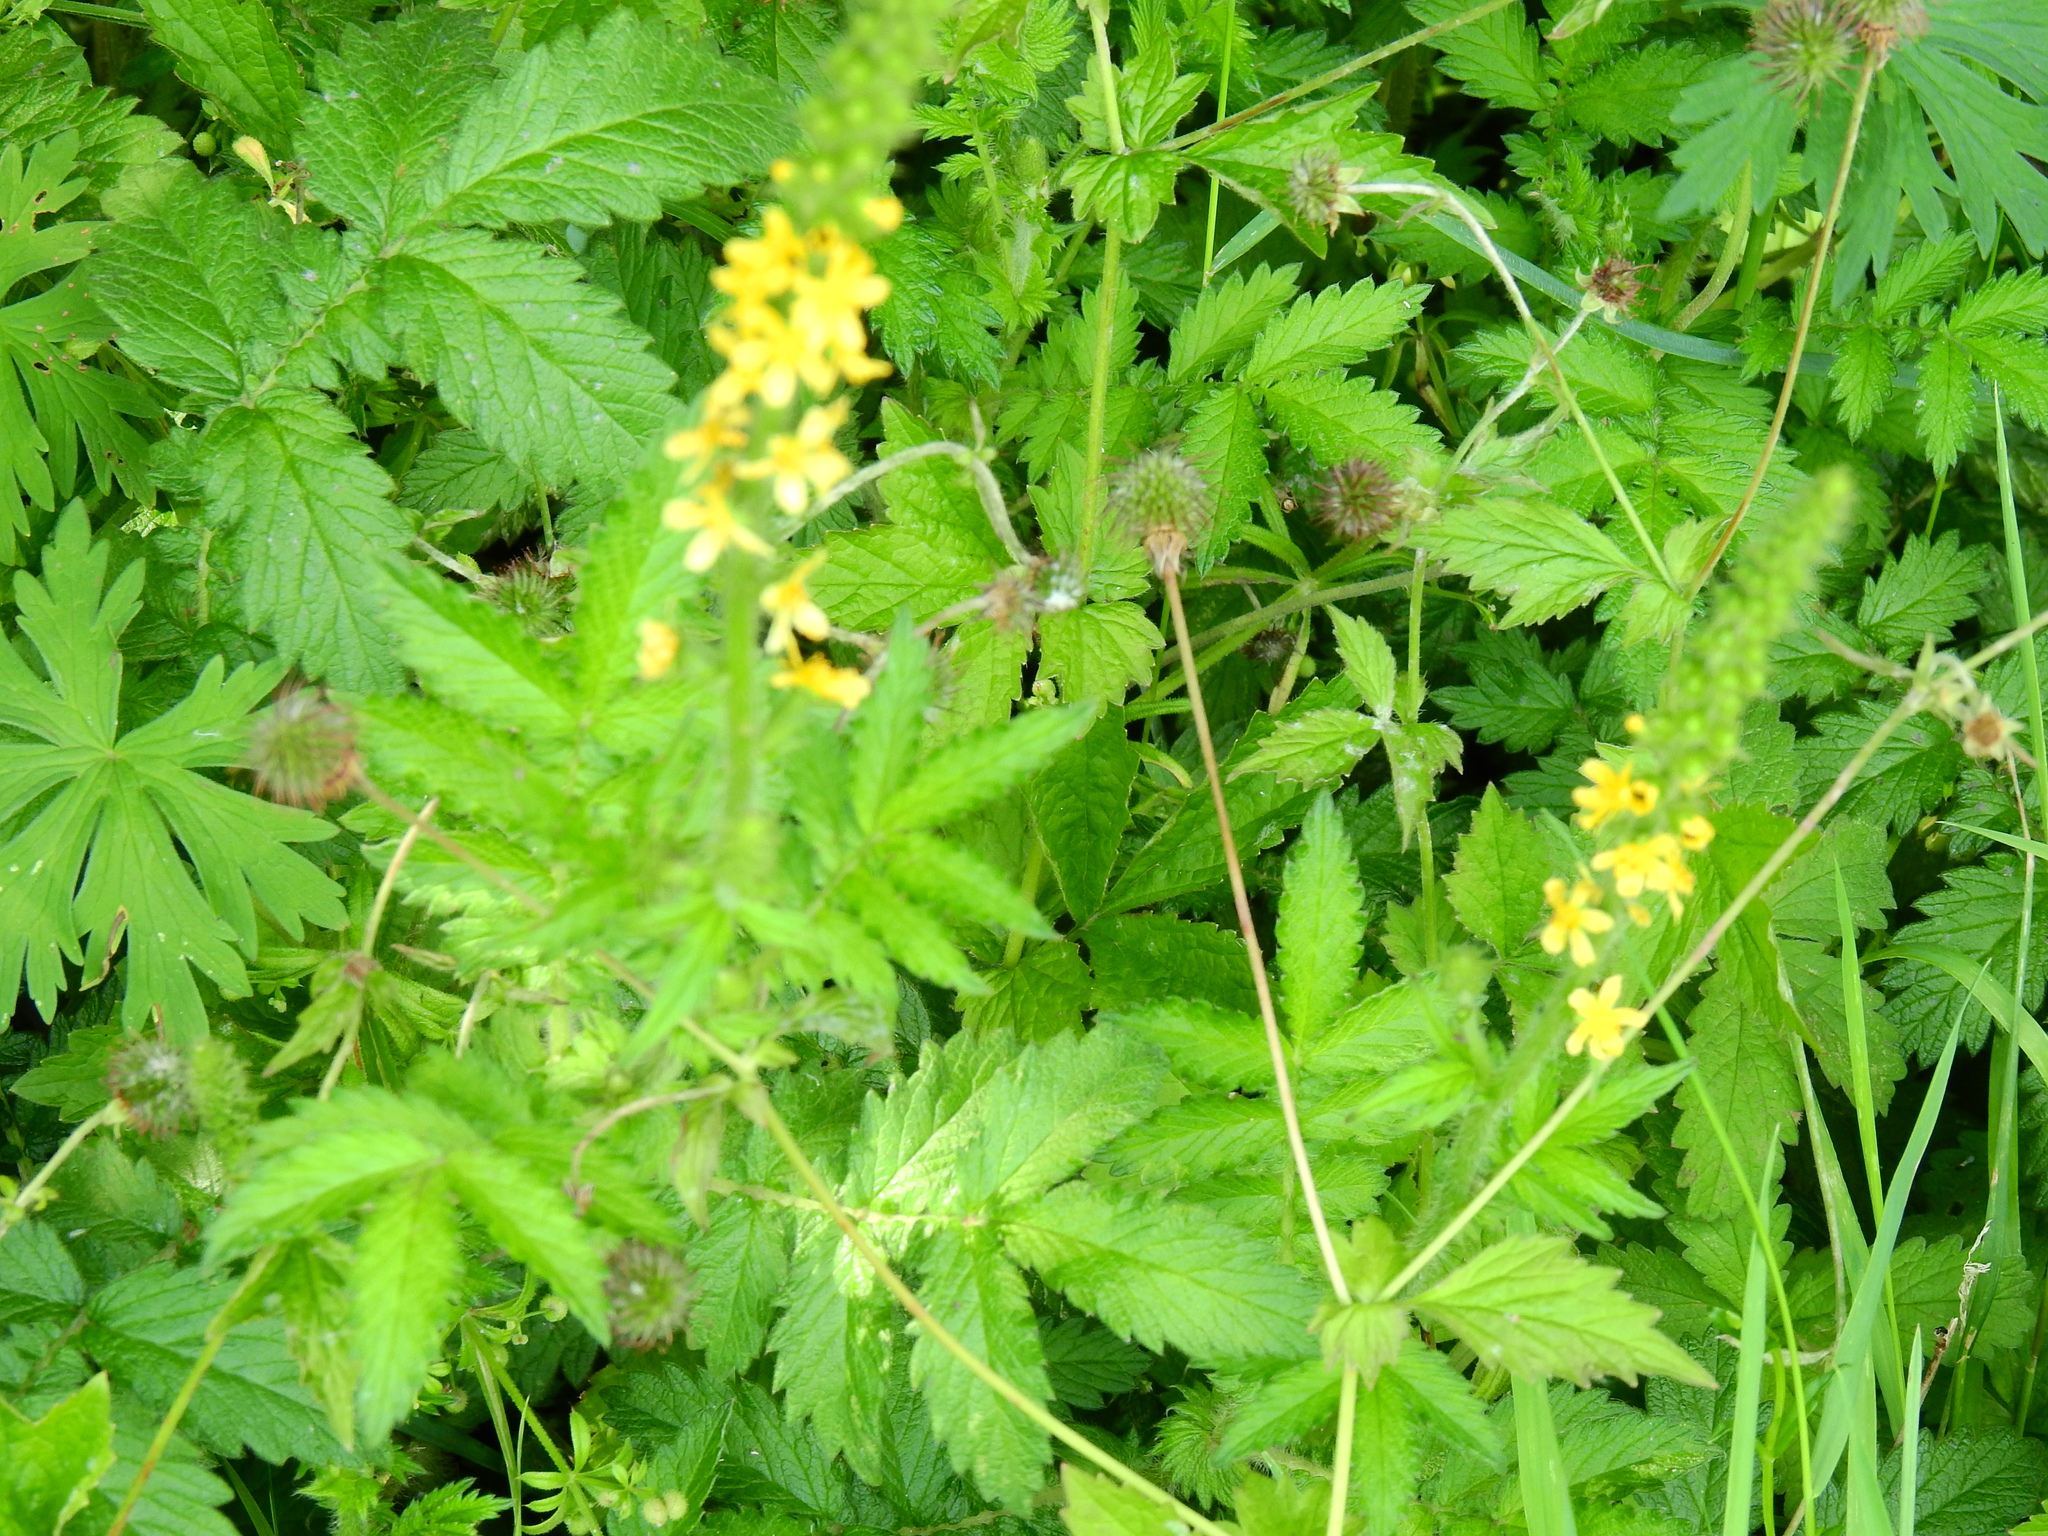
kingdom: Plantae
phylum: Tracheophyta
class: Magnoliopsida
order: Rosales
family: Rosaceae
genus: Agrimonia
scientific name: Agrimonia eupatoria
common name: Agrimony
